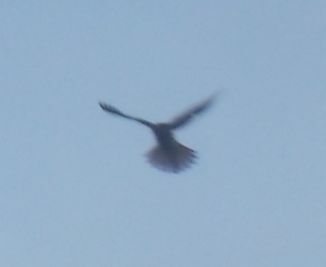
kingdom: Animalia
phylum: Chordata
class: Aves
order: Falconiformes
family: Falconidae
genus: Falco
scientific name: Falco tinnunculus
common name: Common kestrel
